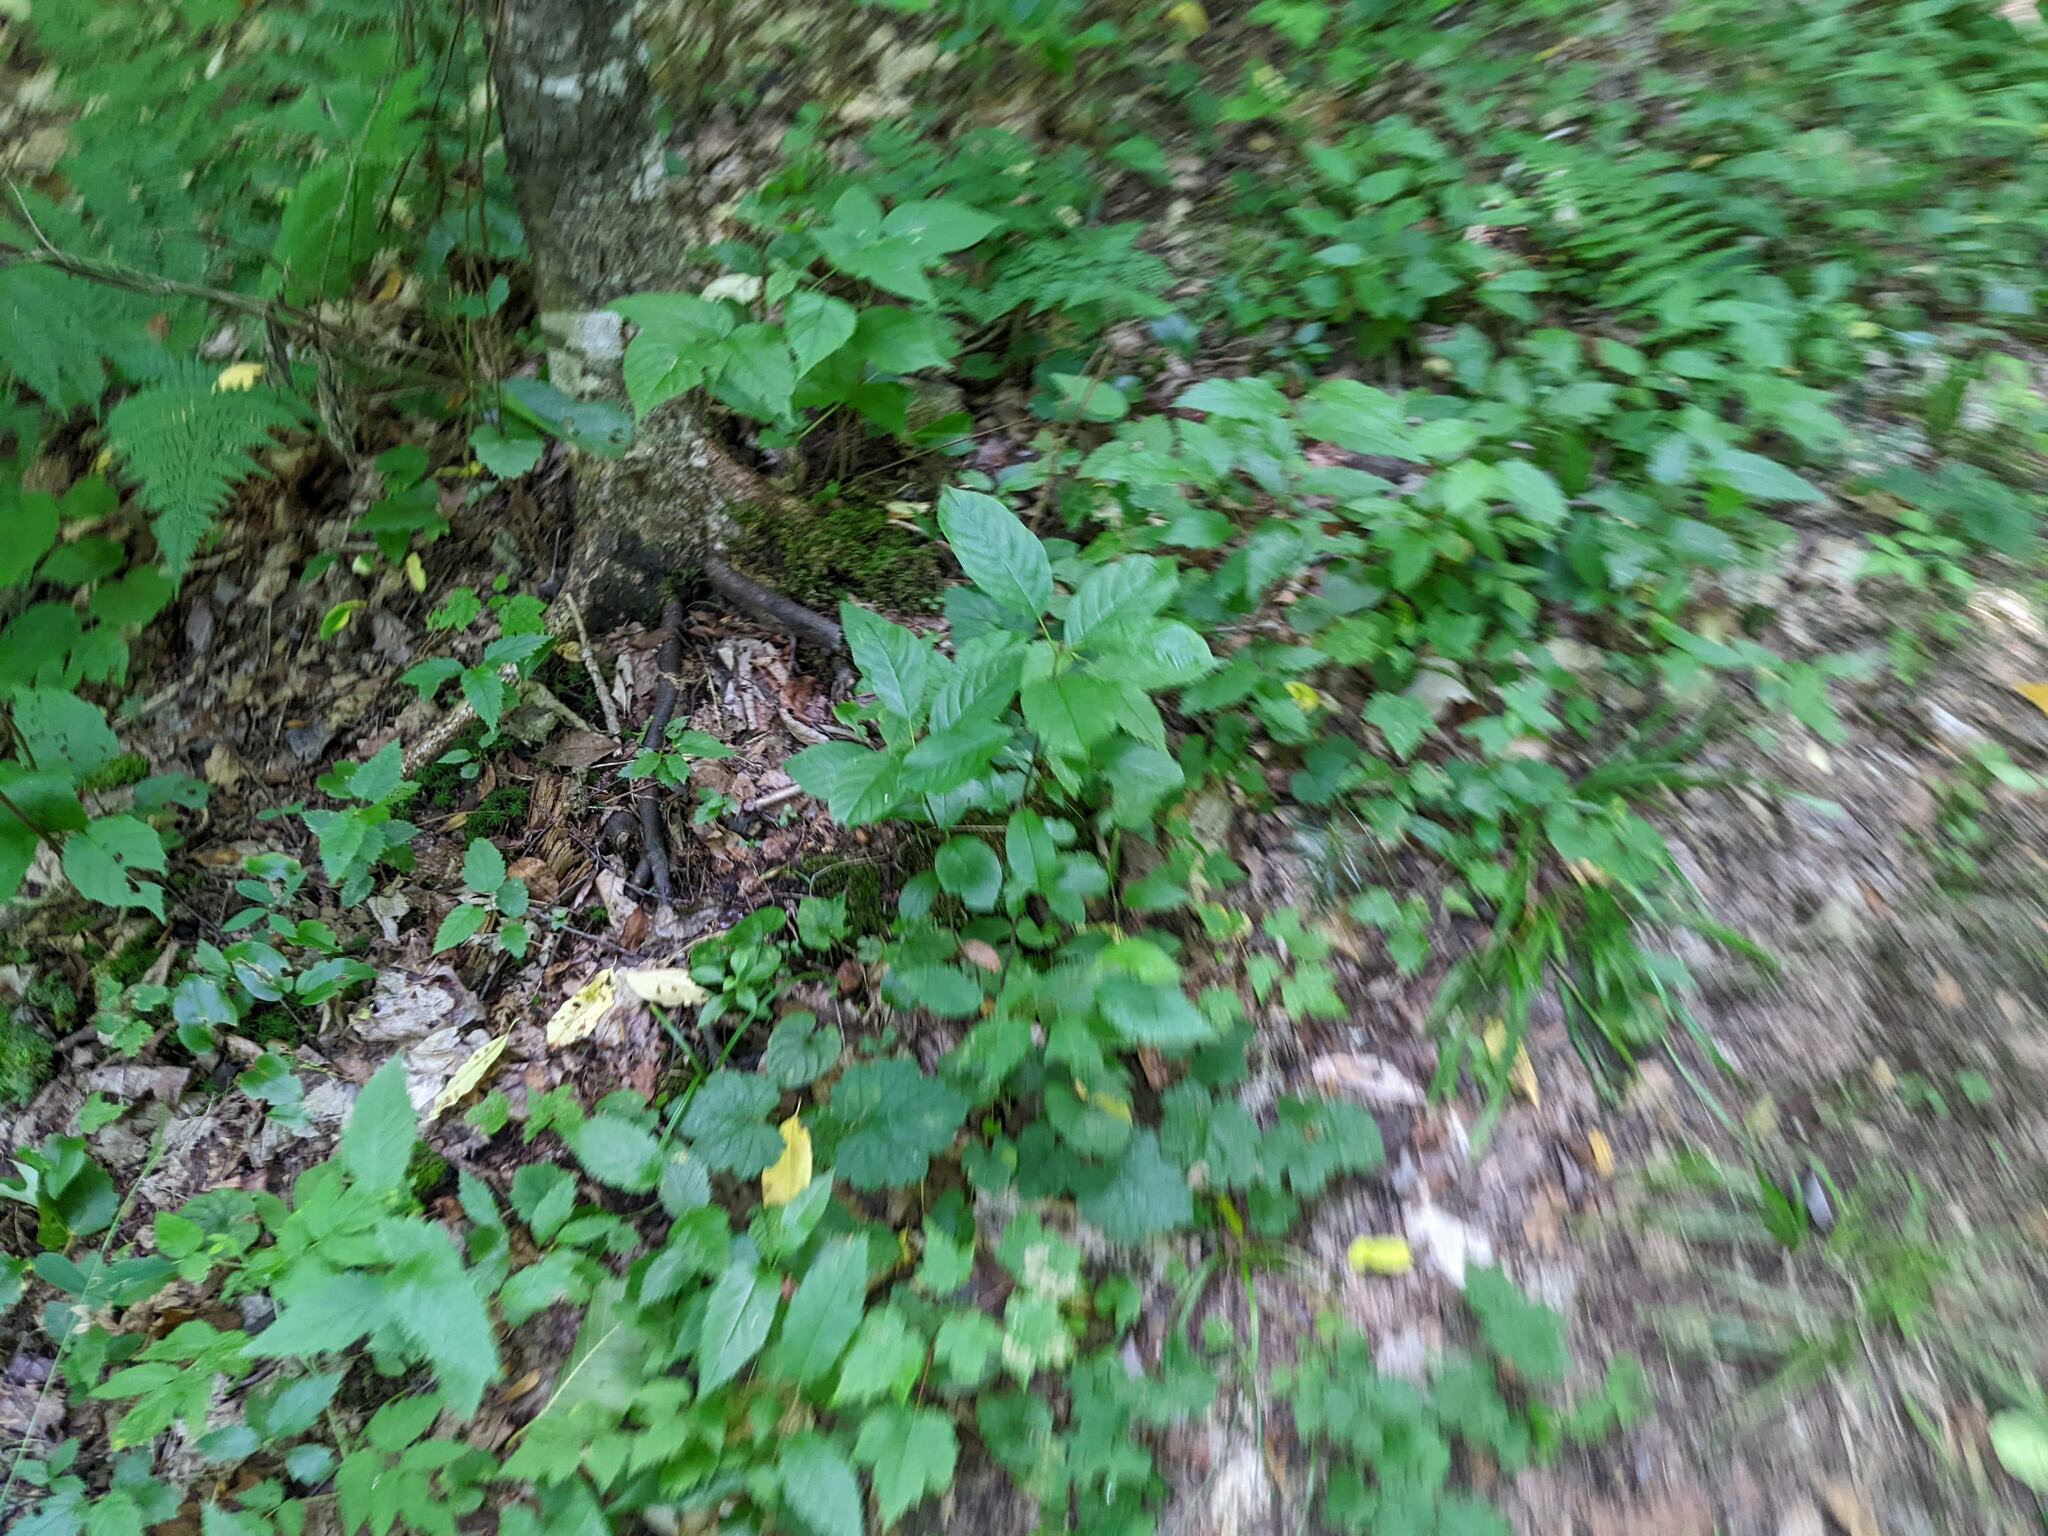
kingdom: Plantae
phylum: Tracheophyta
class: Magnoliopsida
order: Rosales
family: Rhamnaceae
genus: Frangula
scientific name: Frangula alnus
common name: Alder buckthorn
